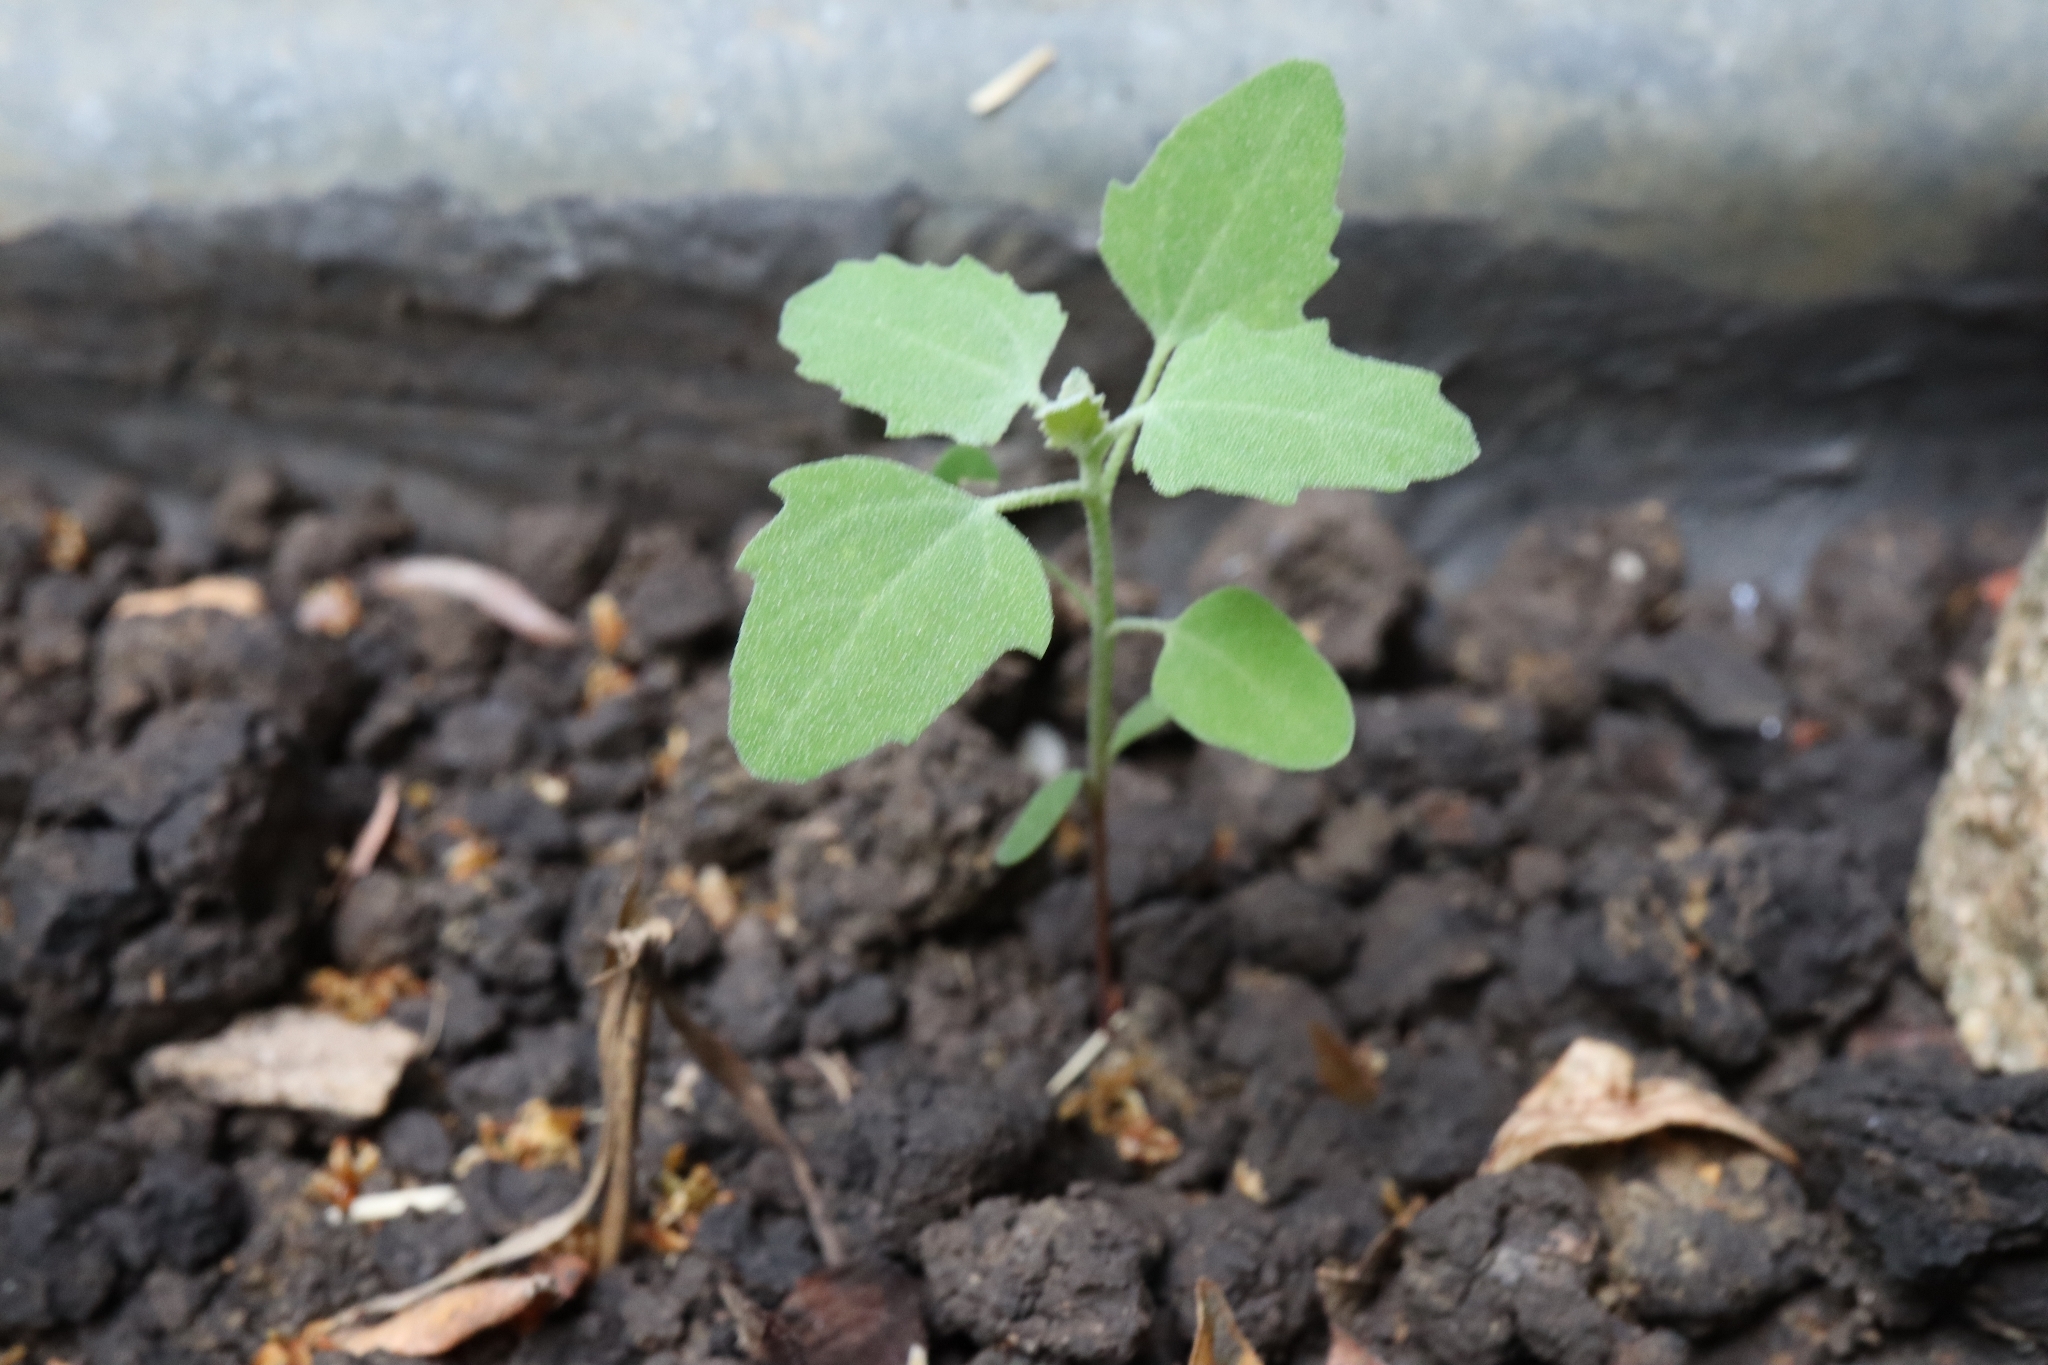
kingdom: Plantae
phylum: Tracheophyta
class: Magnoliopsida
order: Caryophyllales
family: Amaranthaceae
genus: Chenopodium
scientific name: Chenopodium album
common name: Fat-hen
